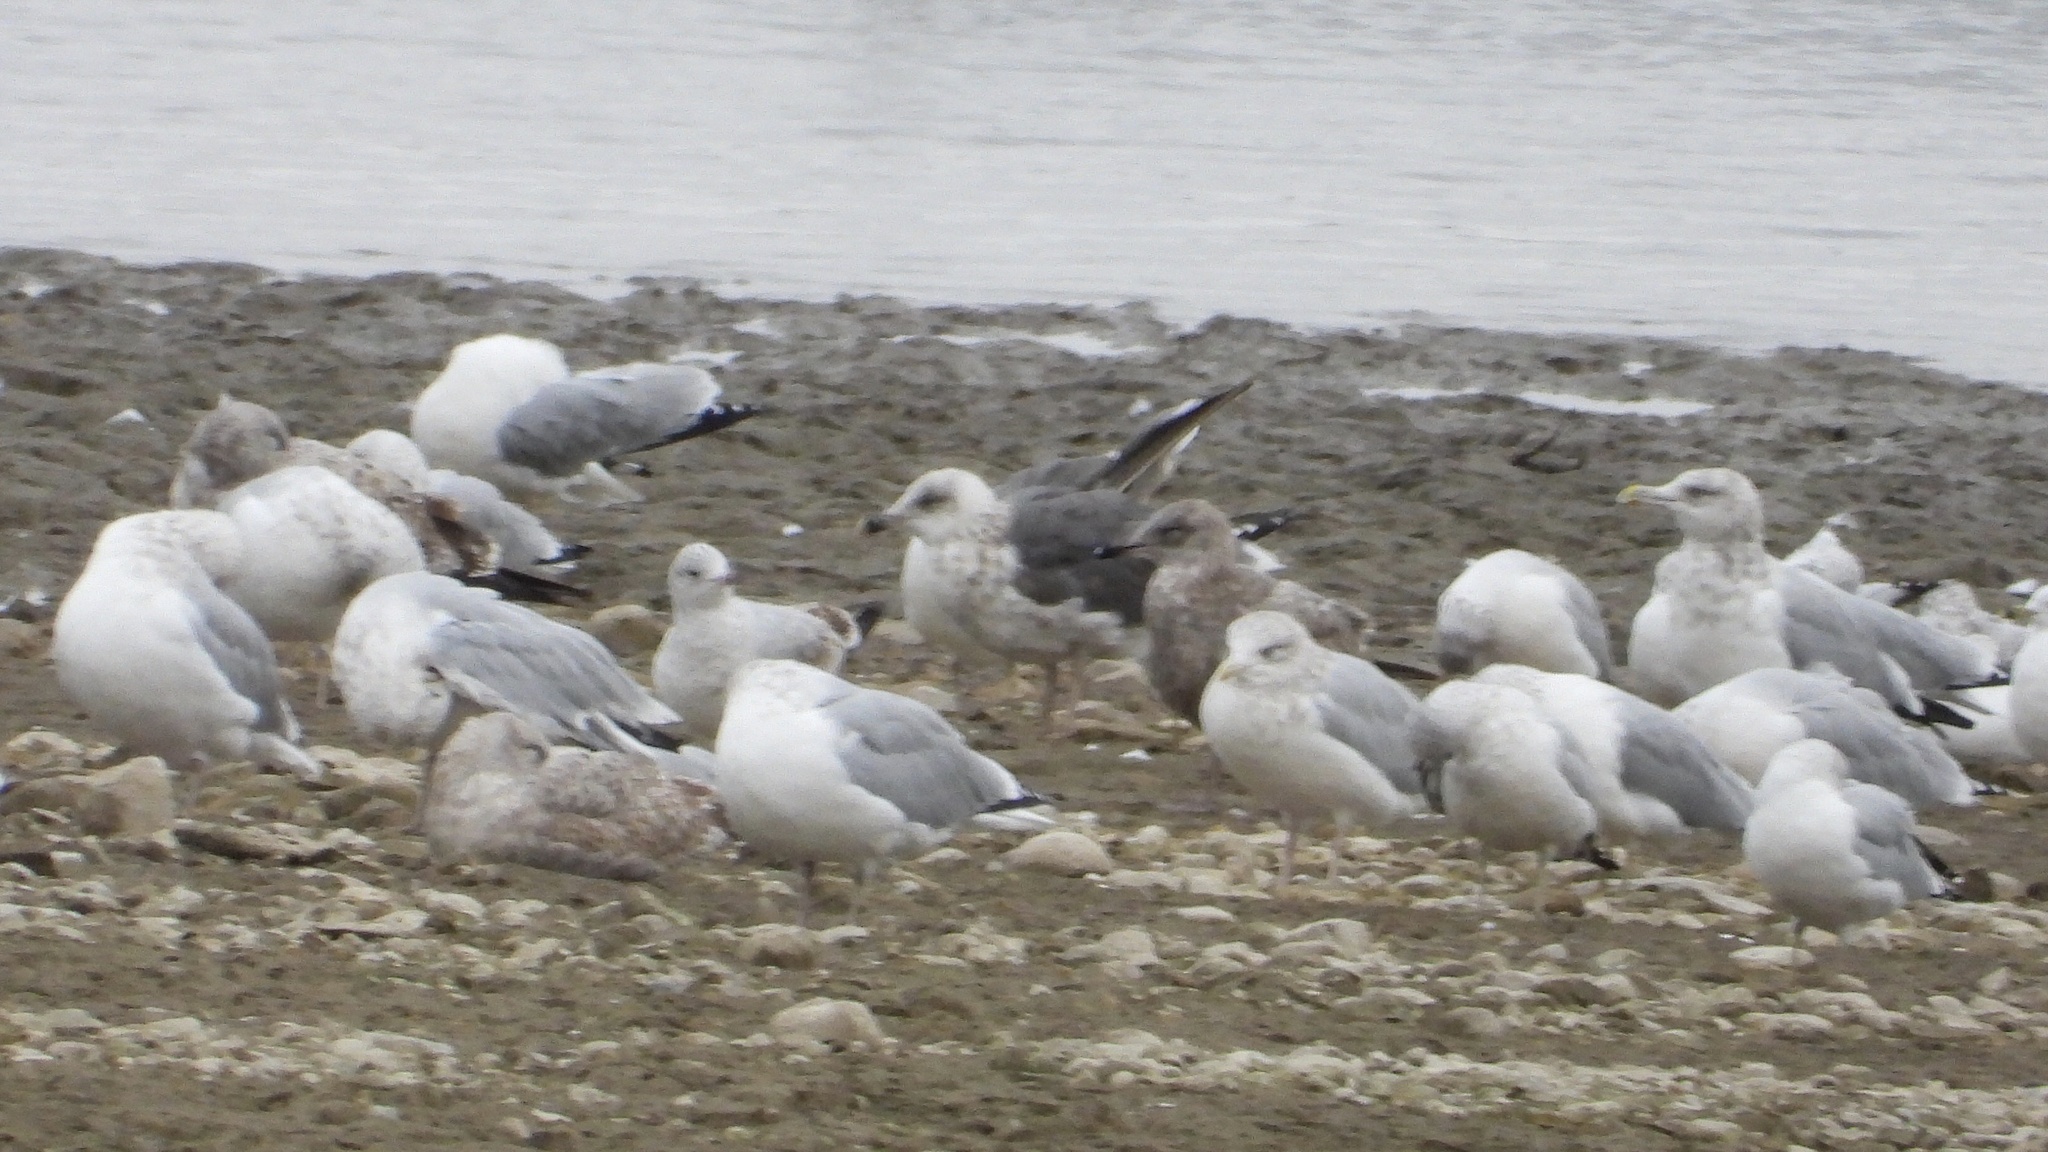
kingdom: Animalia
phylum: Chordata
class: Aves
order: Charadriiformes
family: Laridae
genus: Larus
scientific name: Larus fuscus
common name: Lesser black-backed gull
